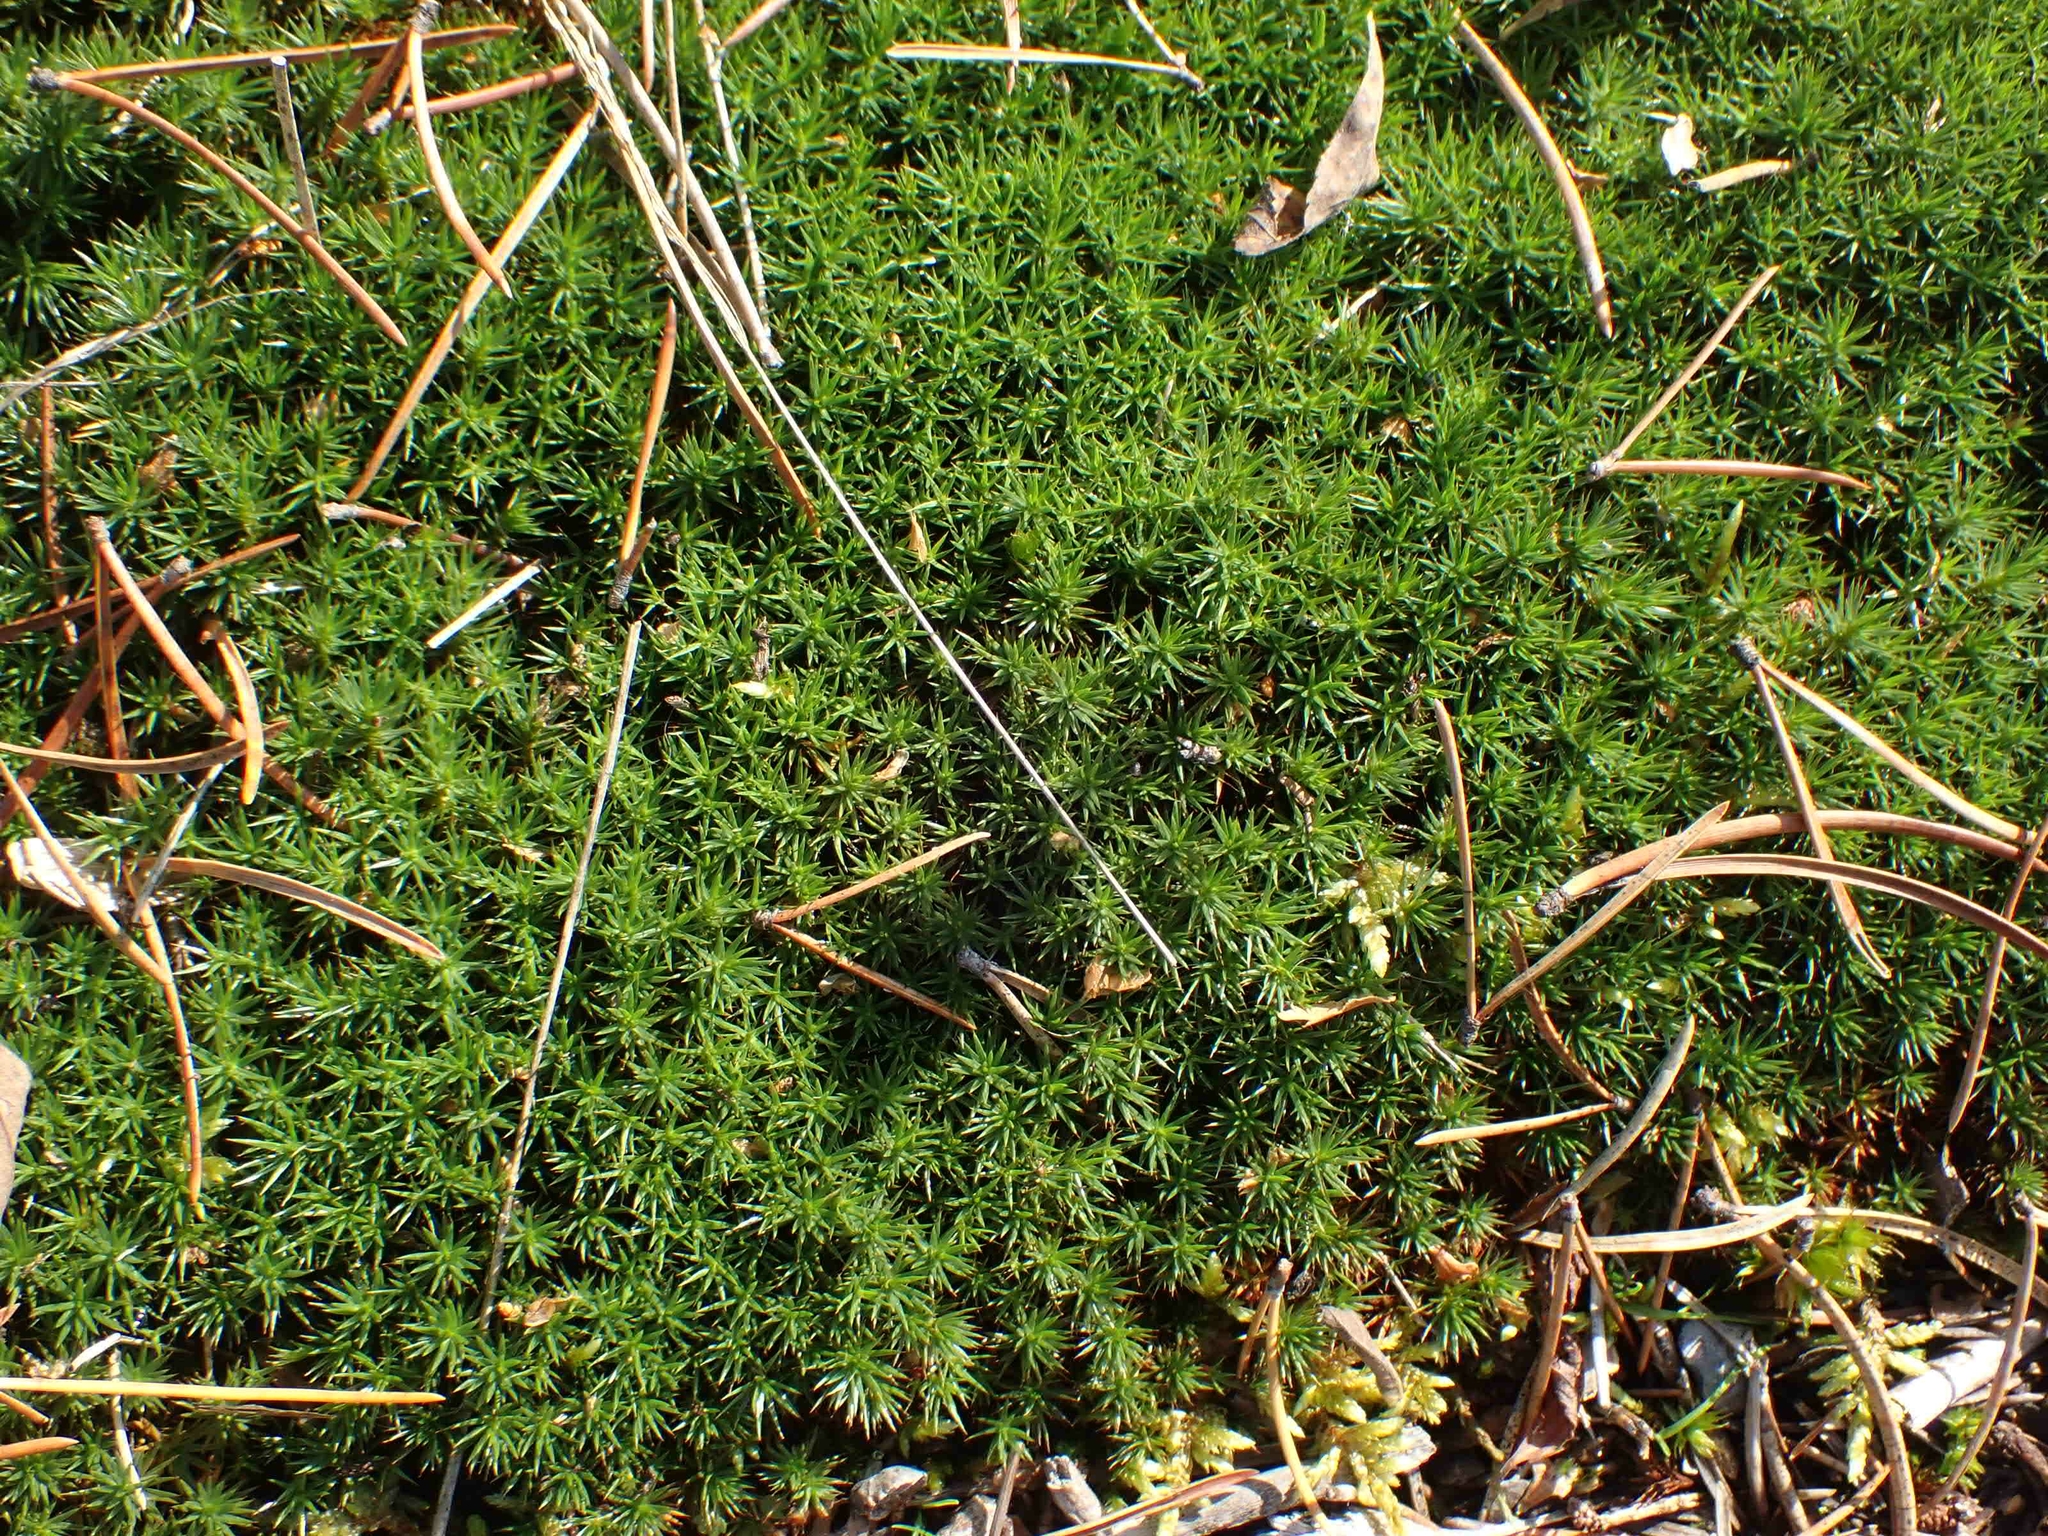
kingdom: Plantae
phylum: Bryophyta
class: Polytrichopsida
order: Polytrichales
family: Polytrichaceae
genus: Polytrichum
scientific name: Polytrichum juniperinum
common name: Juniper haircap moss
